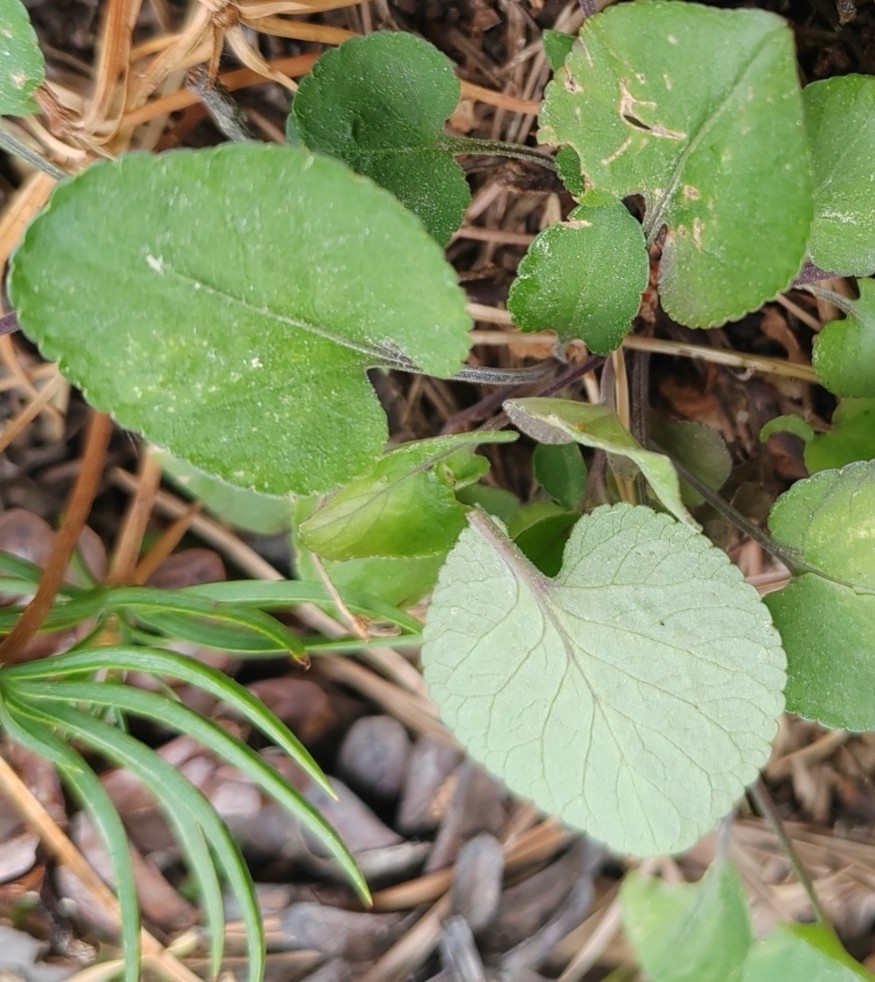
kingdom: Plantae
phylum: Tracheophyta
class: Magnoliopsida
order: Malpighiales
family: Violaceae
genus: Viola
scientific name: Viola rupestris
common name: Teesdale violet
